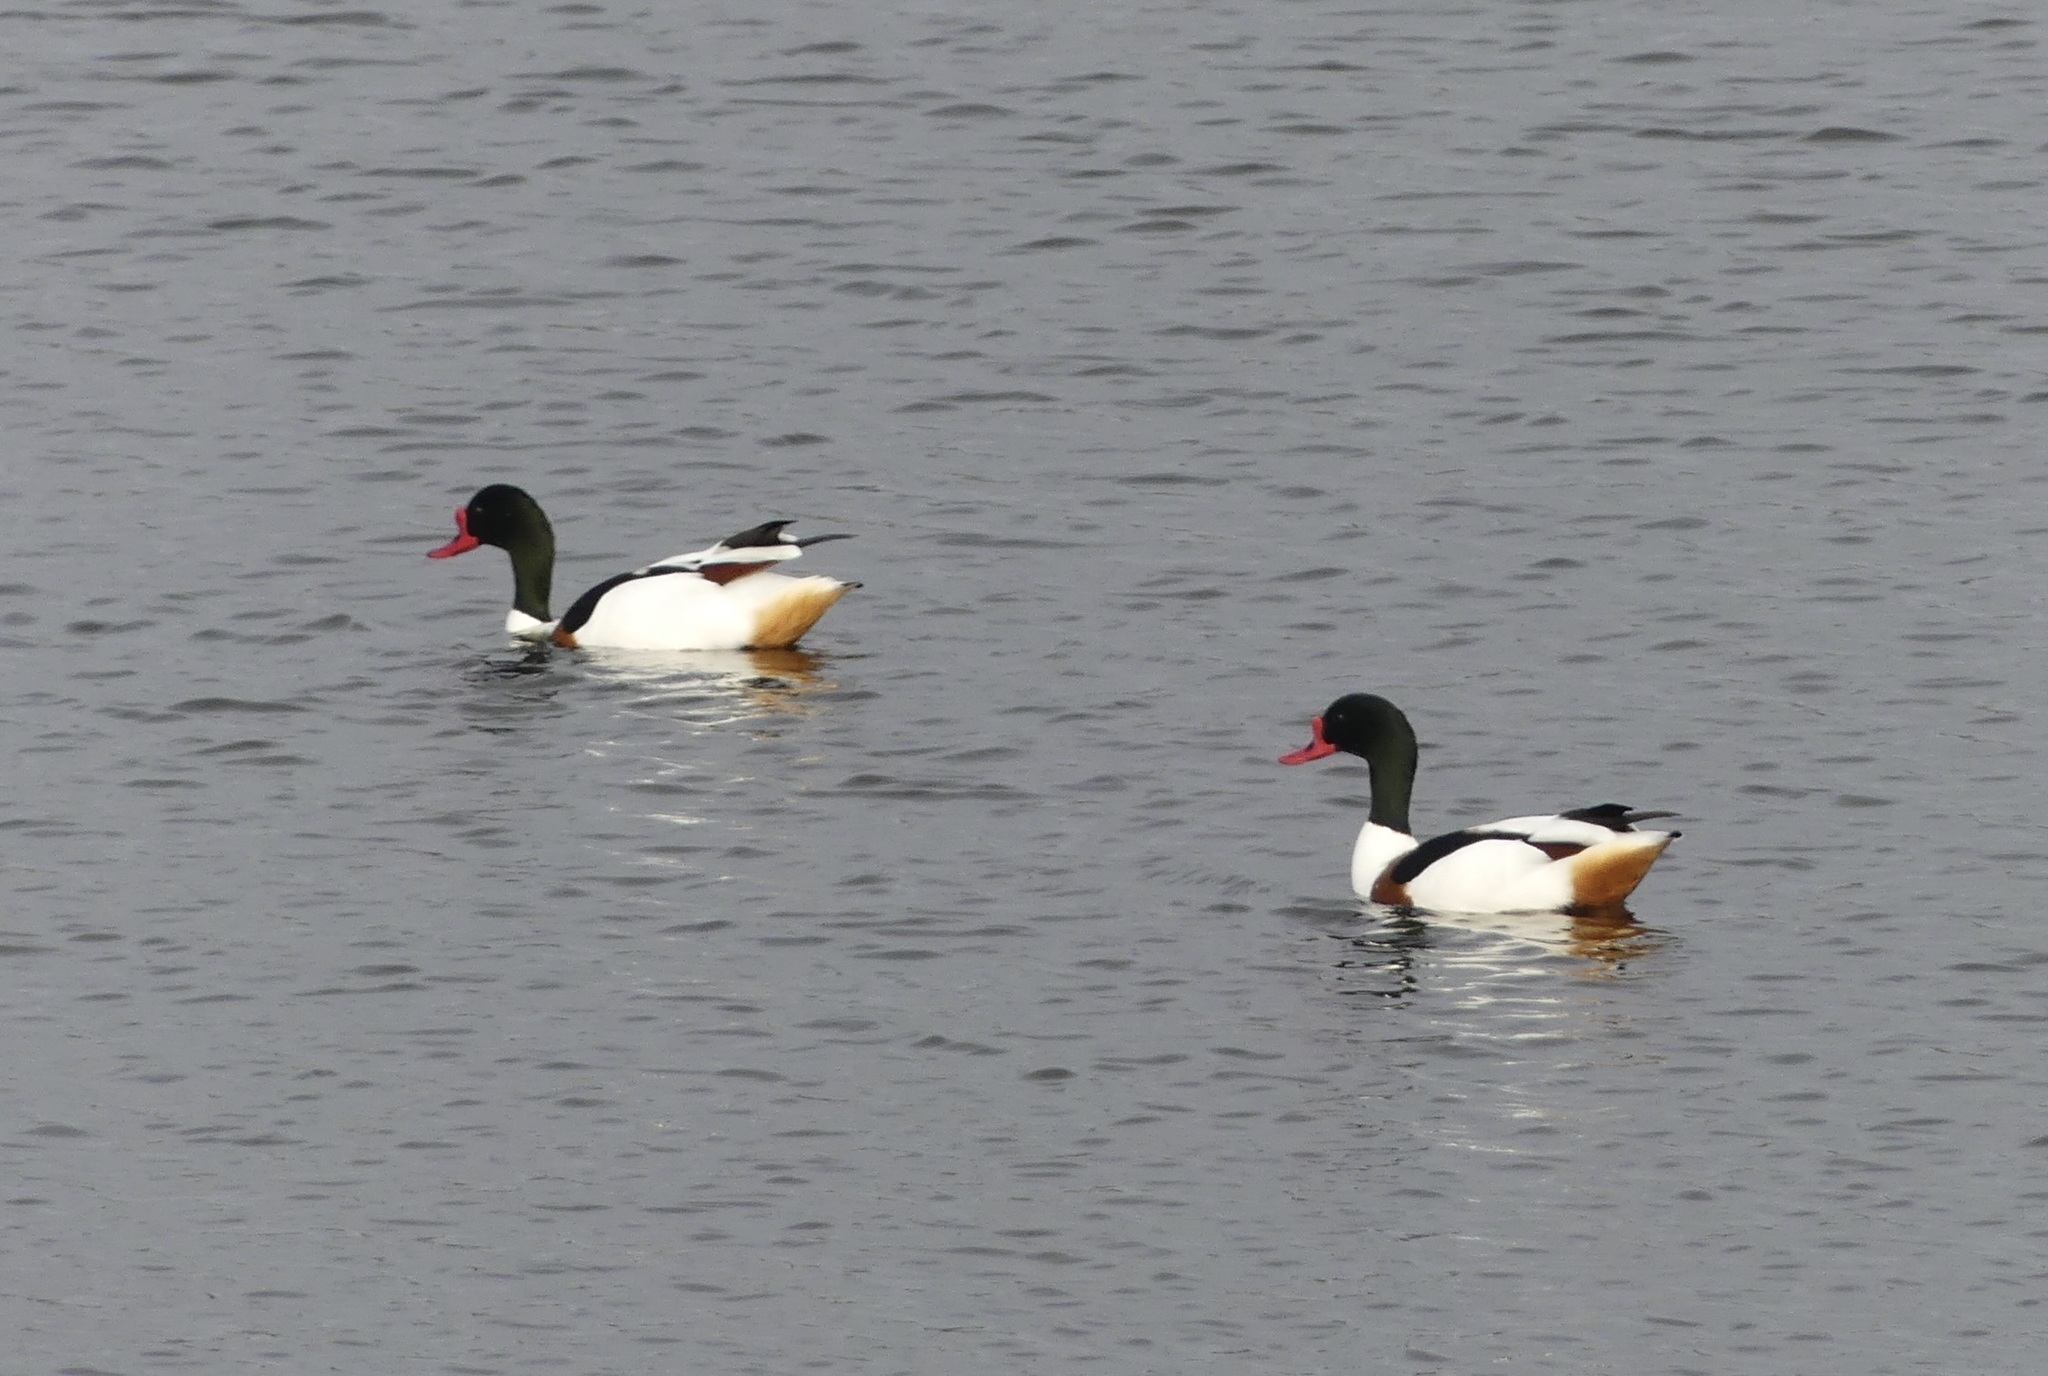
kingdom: Animalia
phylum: Chordata
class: Aves
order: Anseriformes
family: Anatidae
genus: Tadorna
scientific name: Tadorna tadorna
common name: Common shelduck
